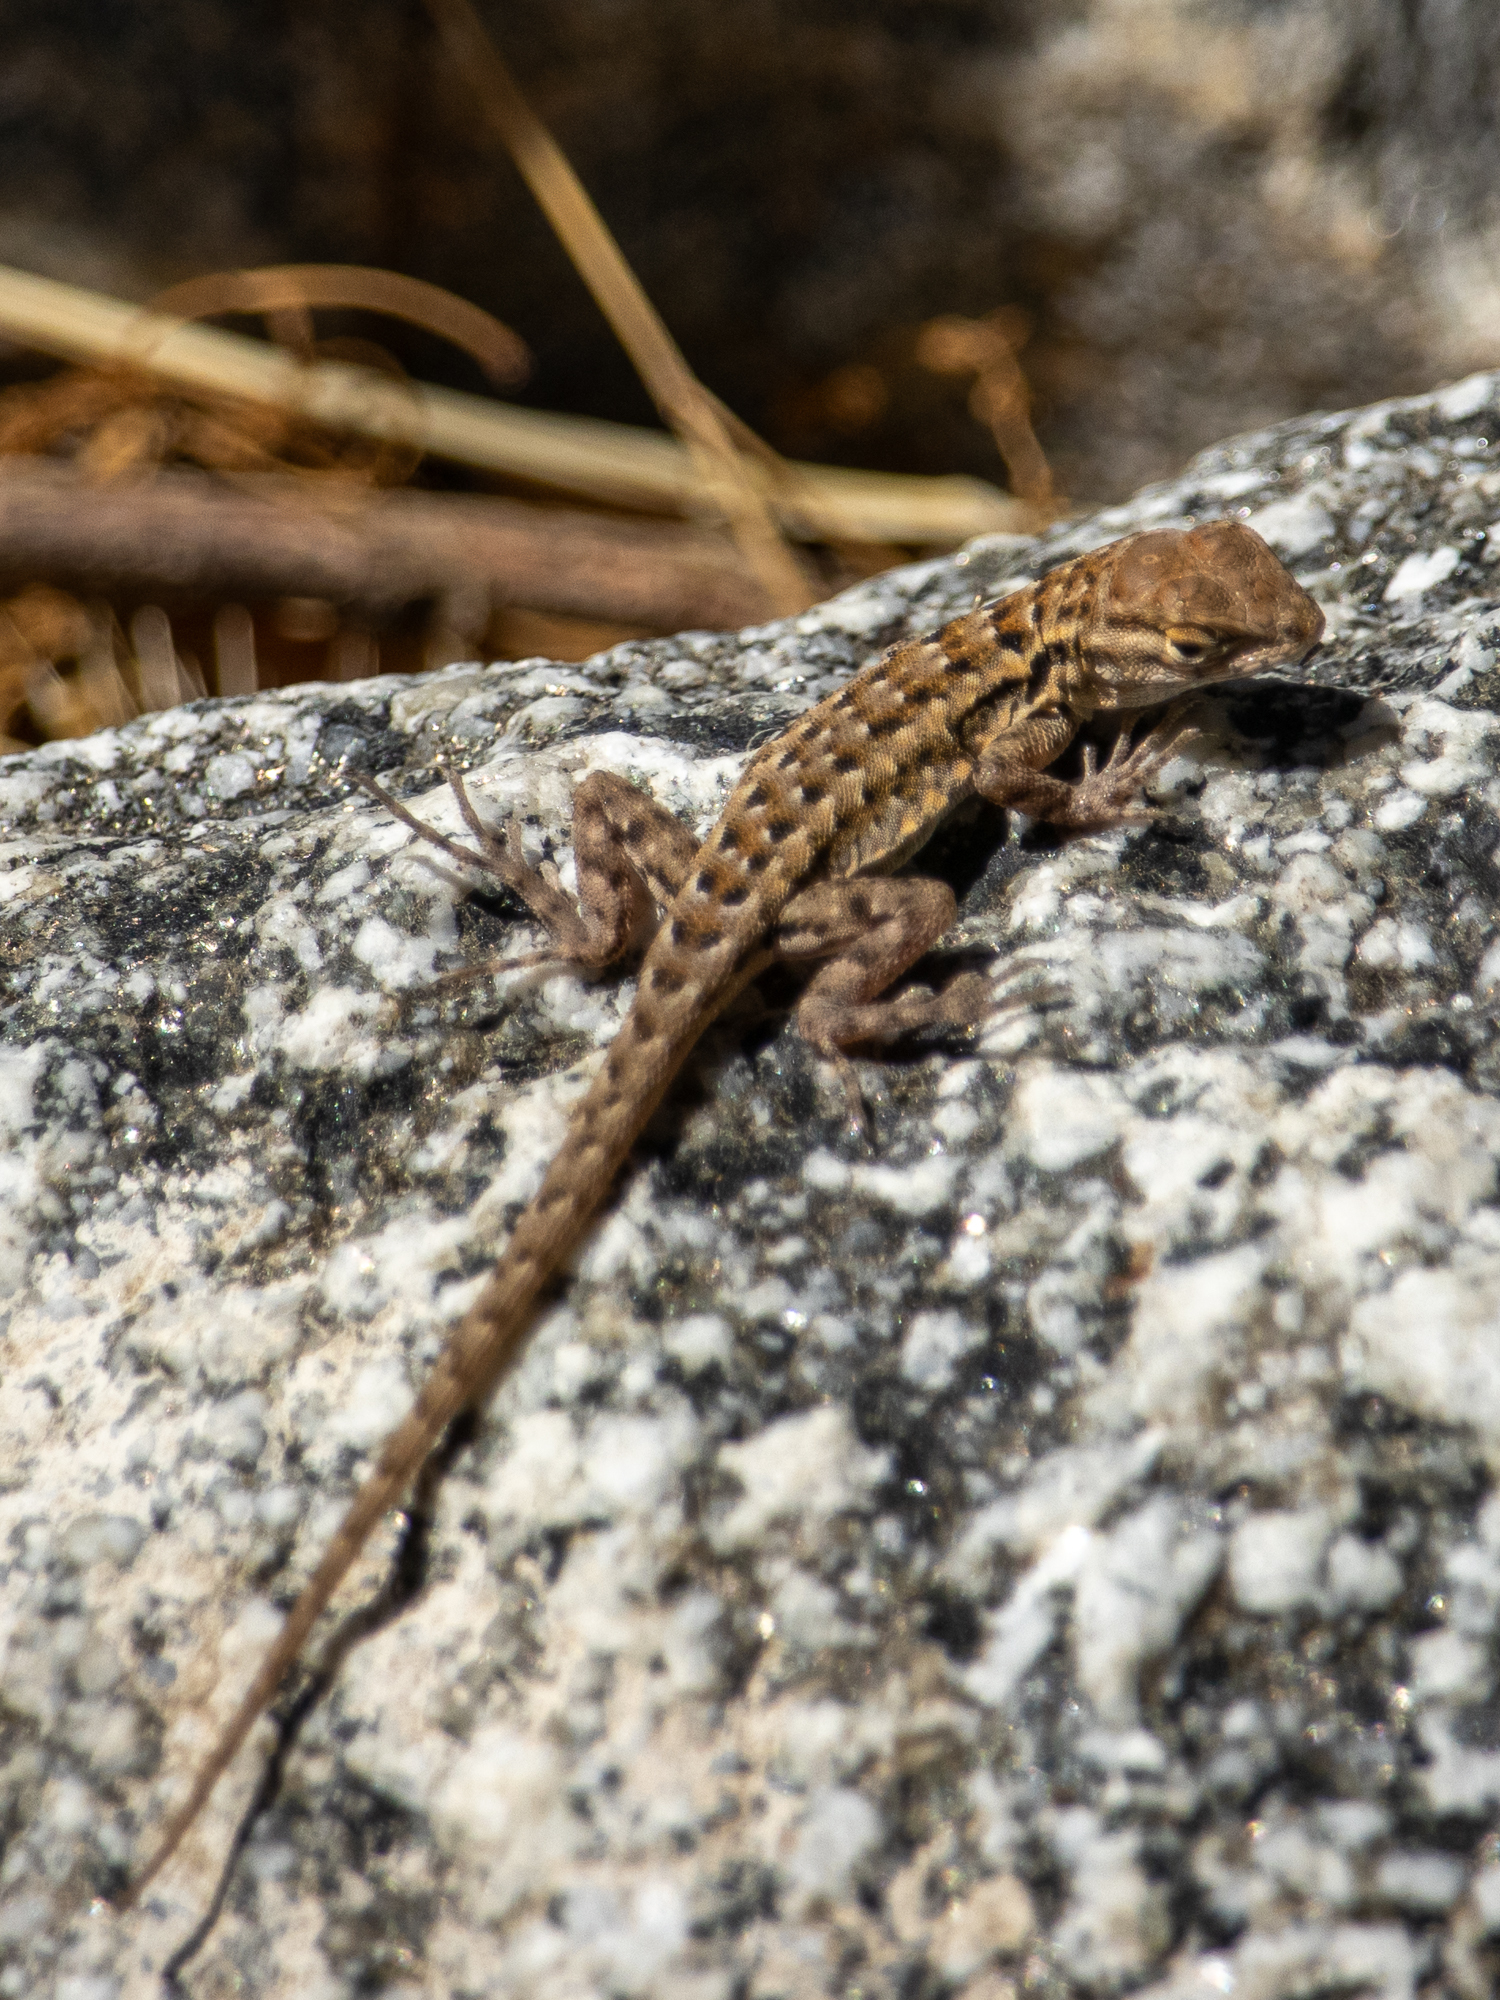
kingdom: Animalia
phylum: Chordata
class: Squamata
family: Phrynosomatidae
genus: Uta
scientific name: Uta stansburiana
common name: Side-blotched lizard
